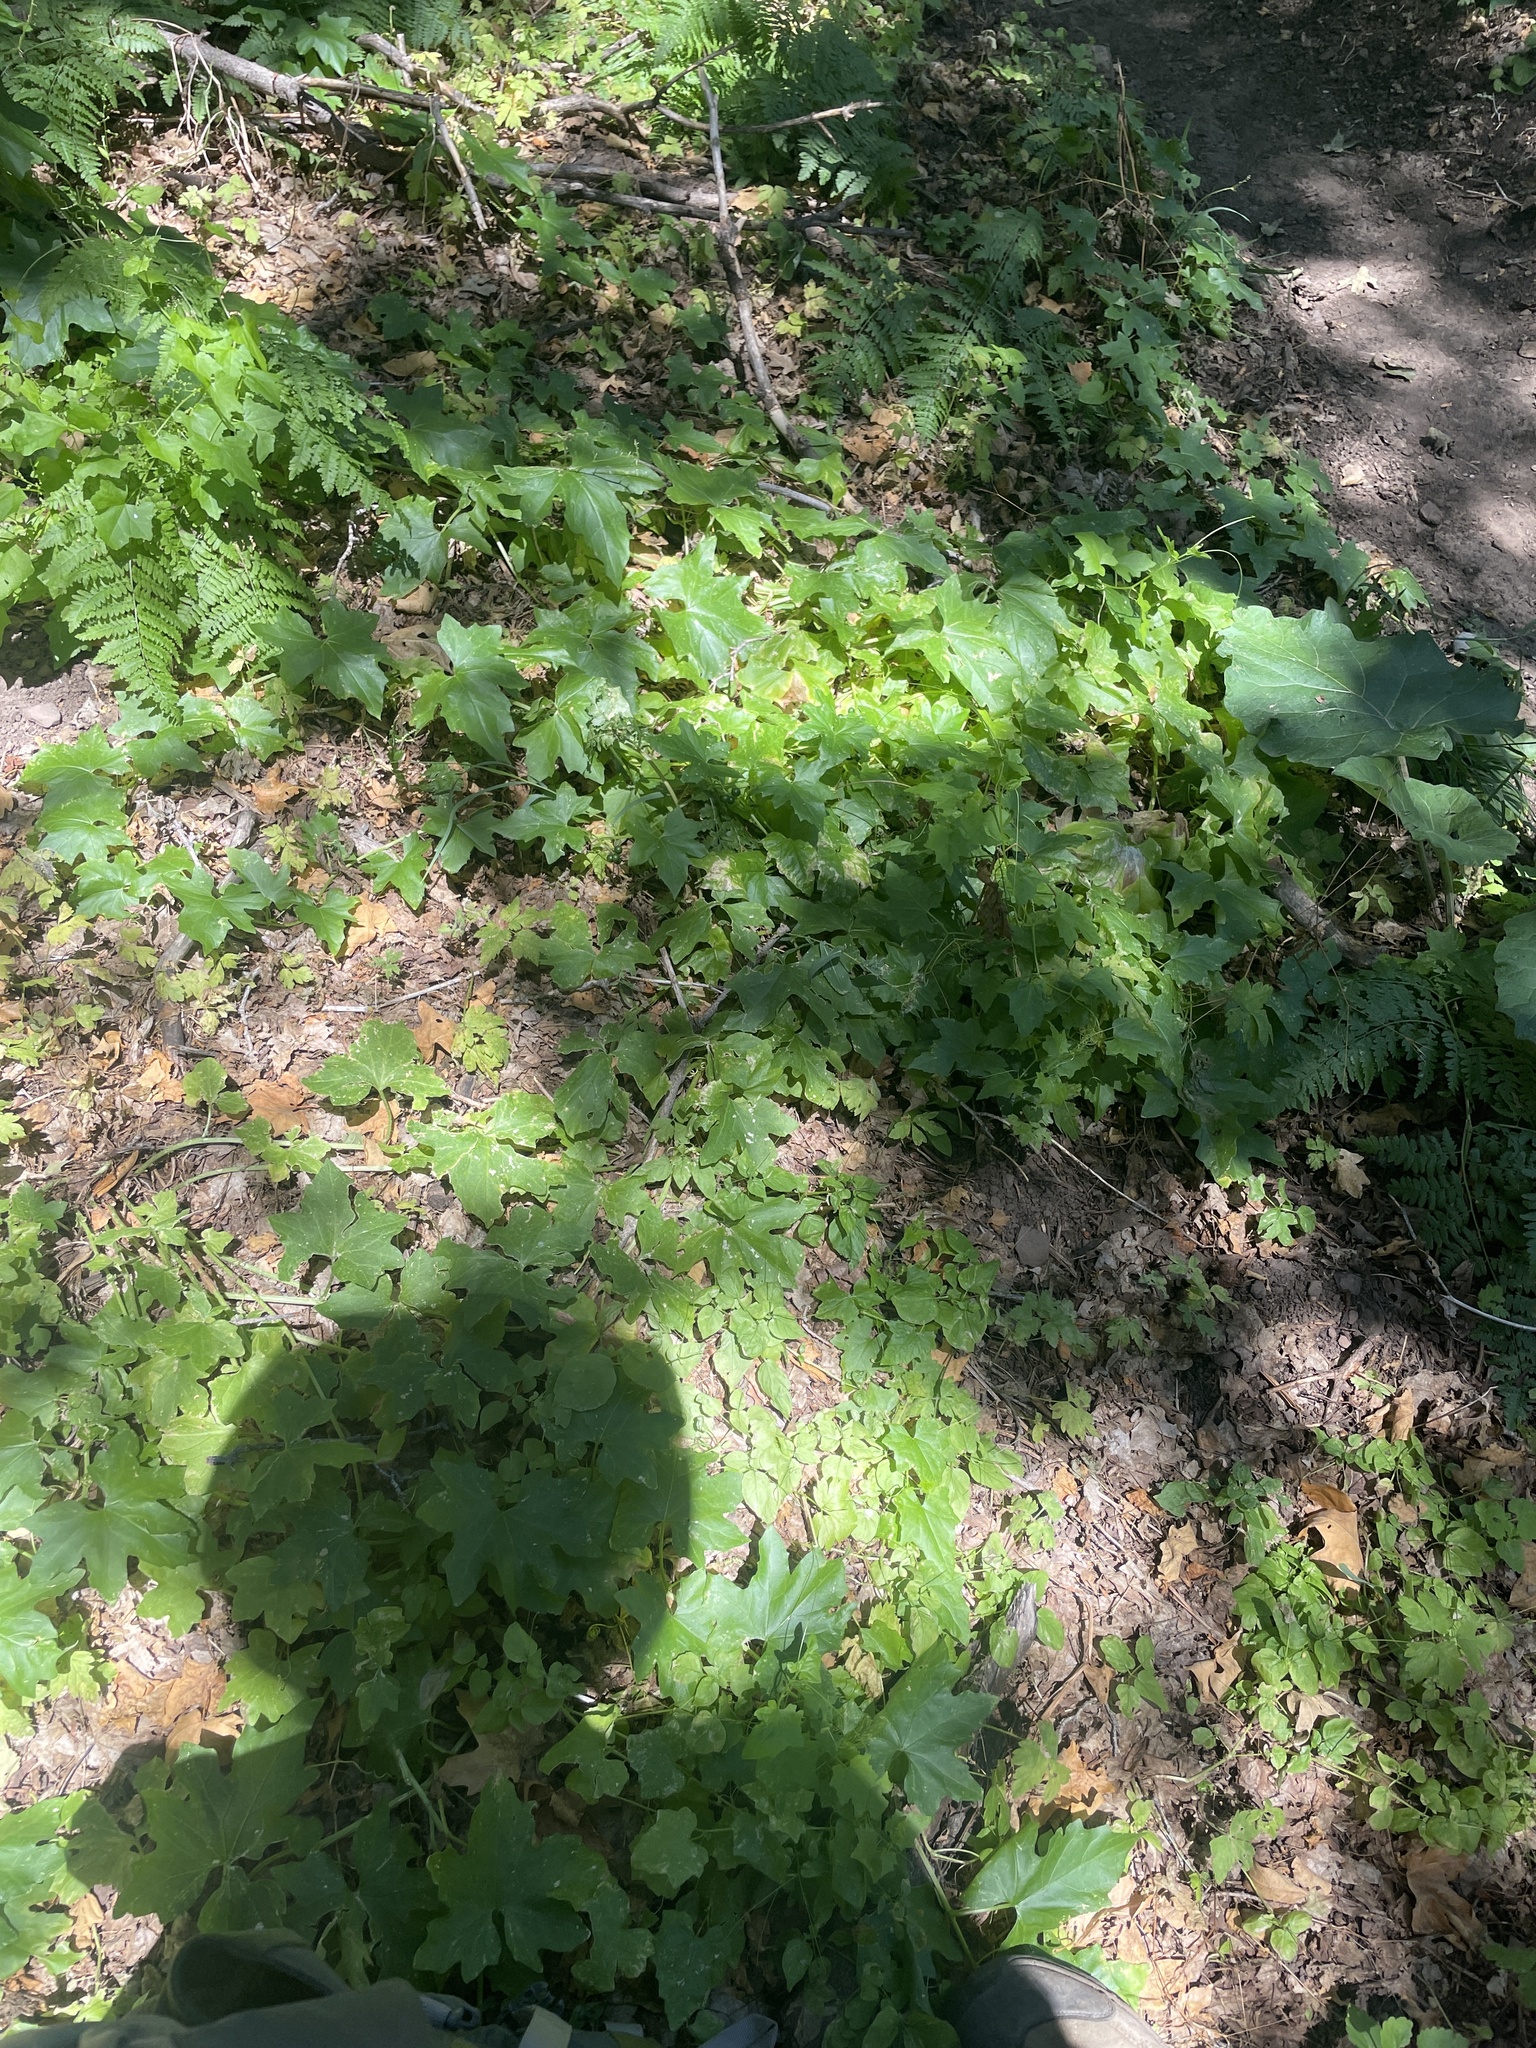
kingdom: Plantae
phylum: Tracheophyta
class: Magnoliopsida
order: Myrtales
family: Onagraceae
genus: Circaea
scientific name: Circaea alpina
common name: Alpine enchanter's-nightshade
